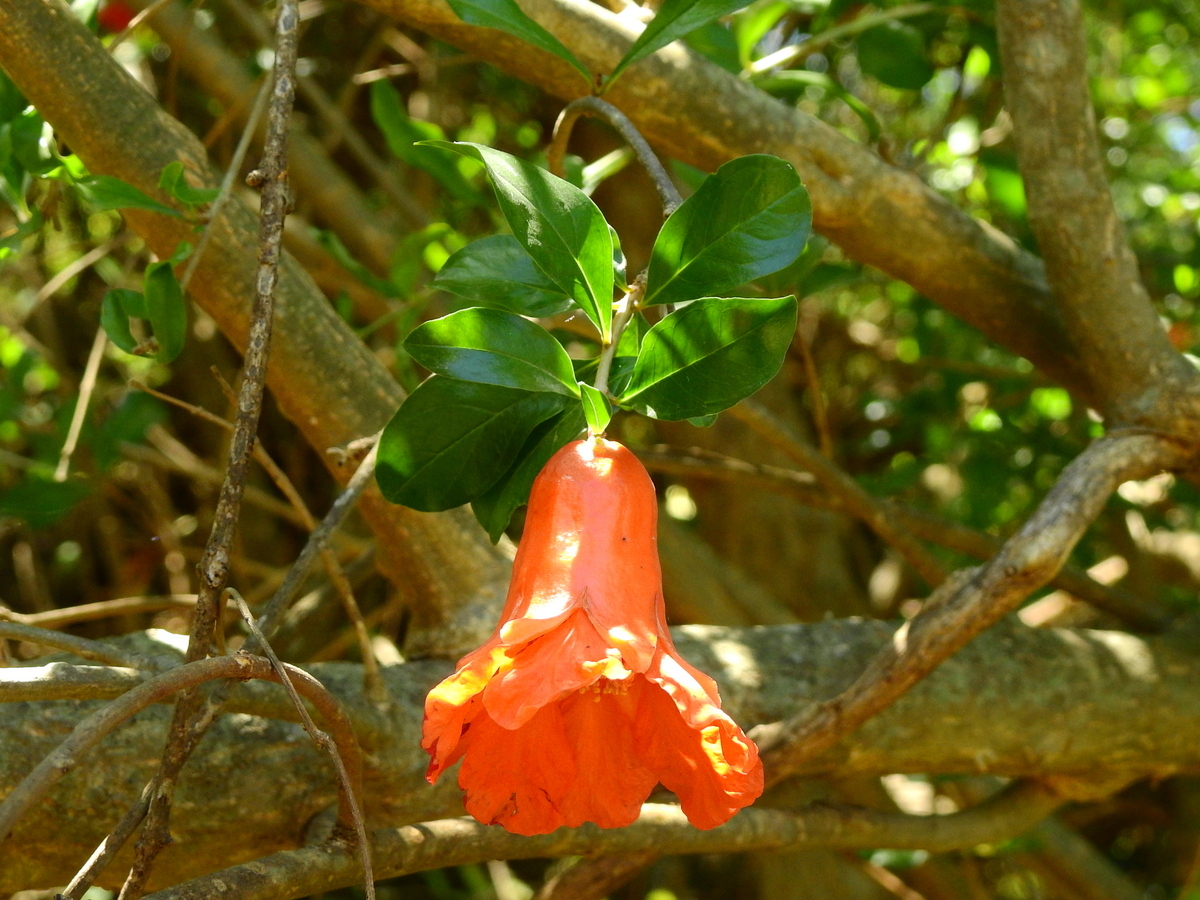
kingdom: Plantae
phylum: Tracheophyta
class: Magnoliopsida
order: Myrtales
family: Lythraceae
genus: Punica
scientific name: Punica granatum
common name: Pomegranate
